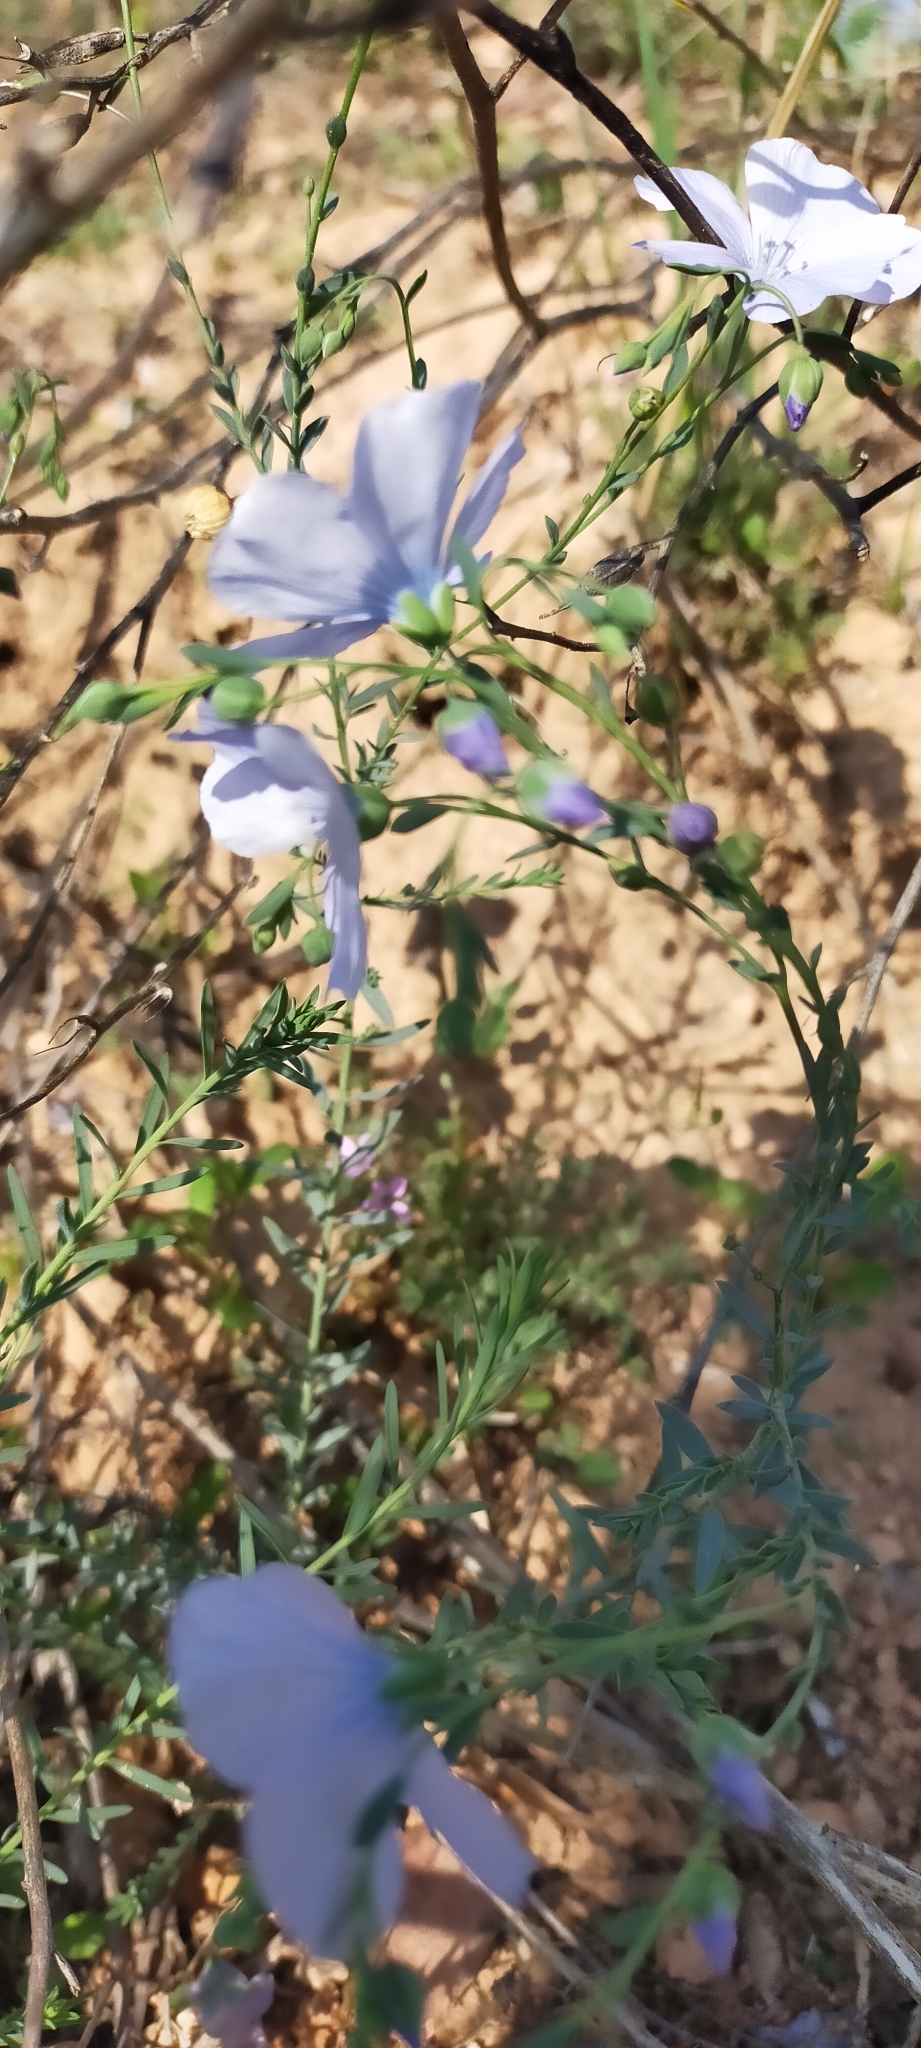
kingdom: Plantae
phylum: Tracheophyta
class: Magnoliopsida
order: Malpighiales
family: Linaceae
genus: Linum
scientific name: Linum bienne
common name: Pale flax
